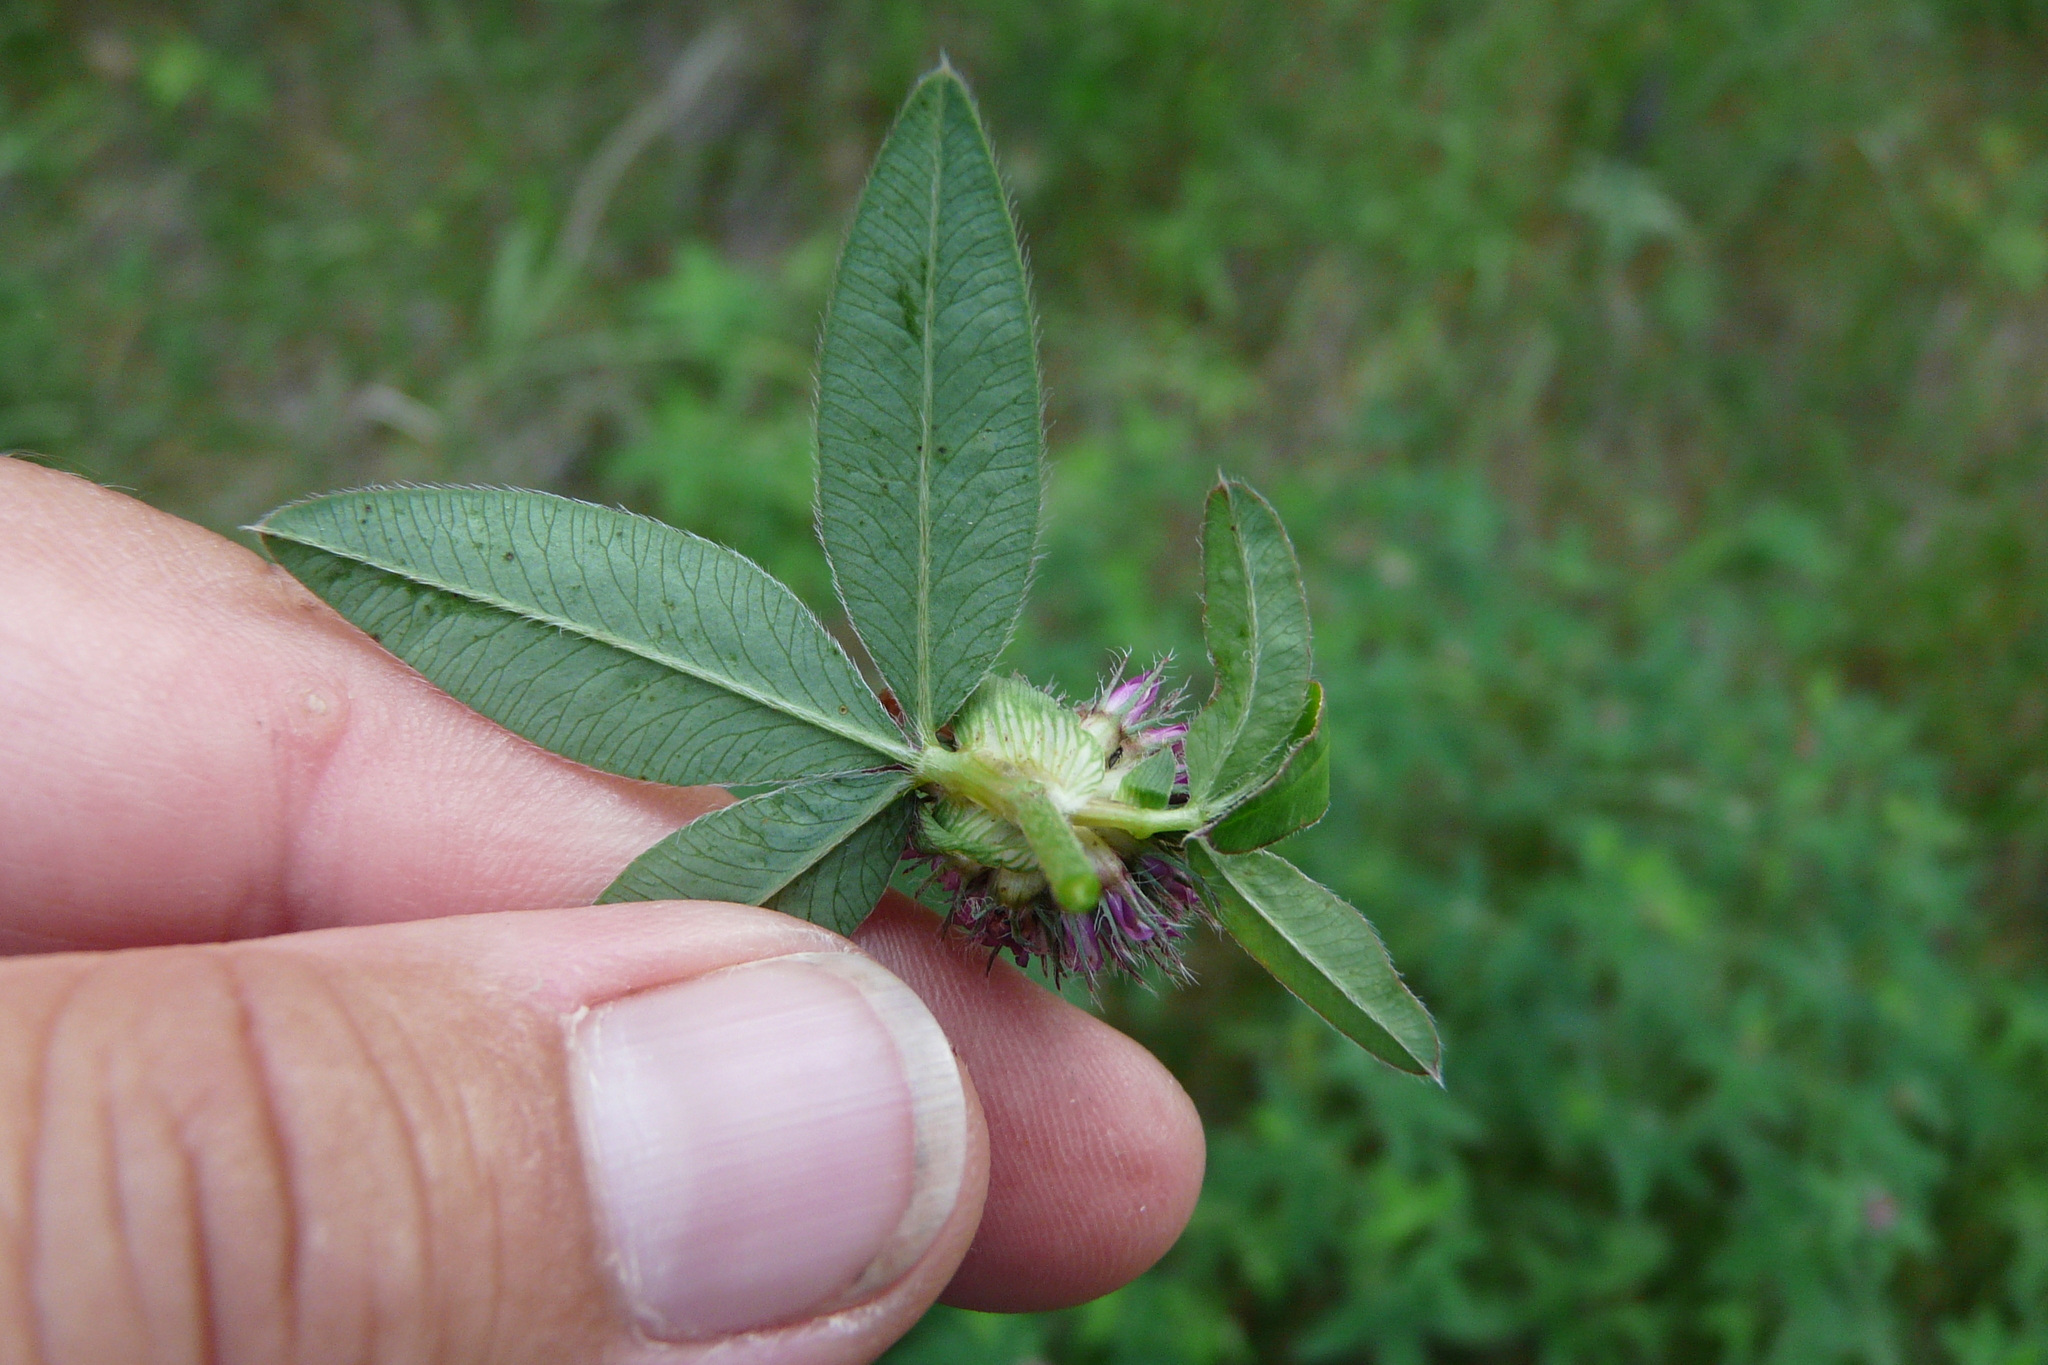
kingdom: Plantae
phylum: Tracheophyta
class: Magnoliopsida
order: Fabales
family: Fabaceae
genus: Trifolium
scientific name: Trifolium medium
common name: Zigzag clover
